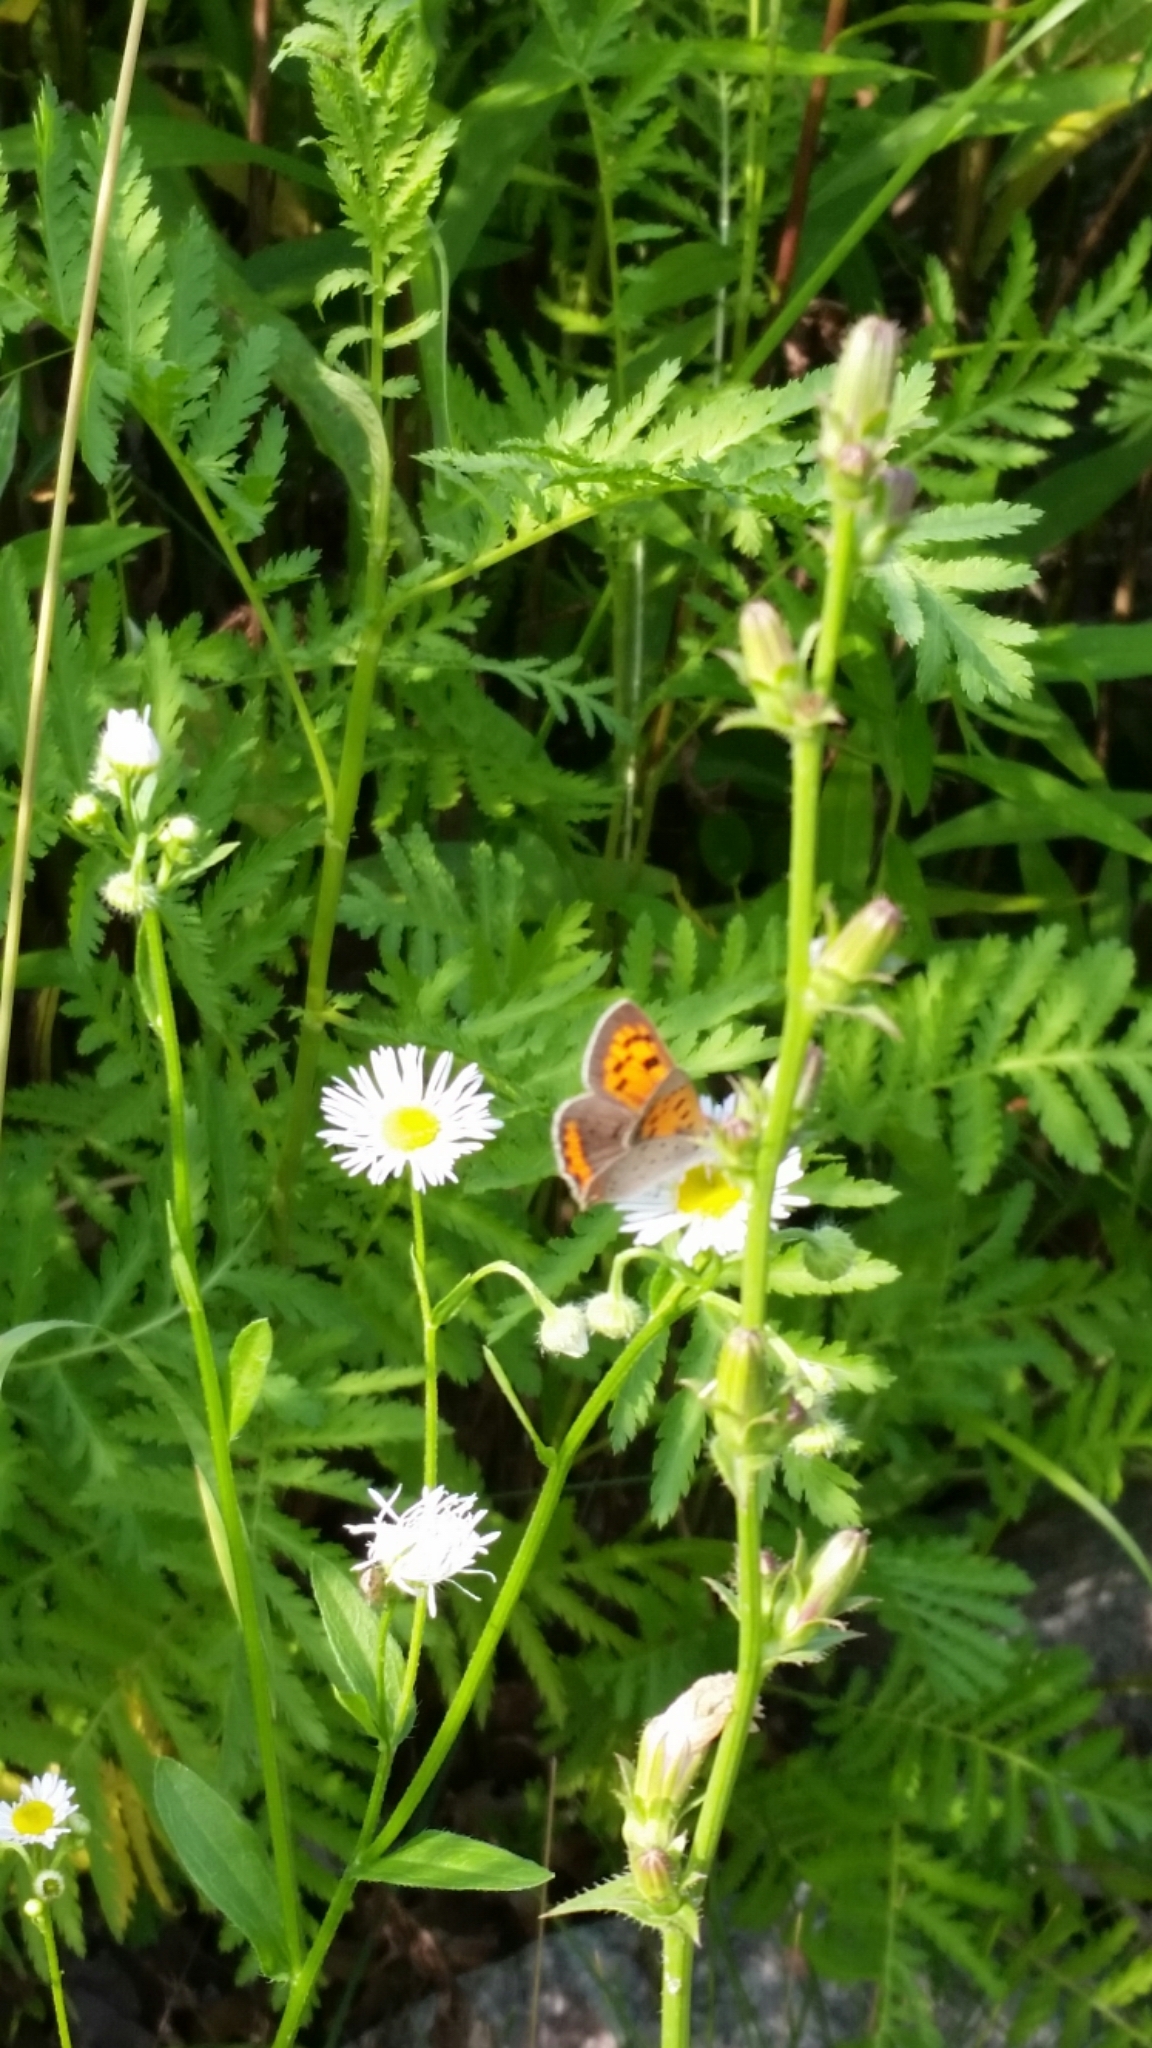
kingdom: Animalia
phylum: Arthropoda
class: Insecta
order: Lepidoptera
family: Lycaenidae
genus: Lycaena
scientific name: Lycaena hypophlaeas
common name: American copper
